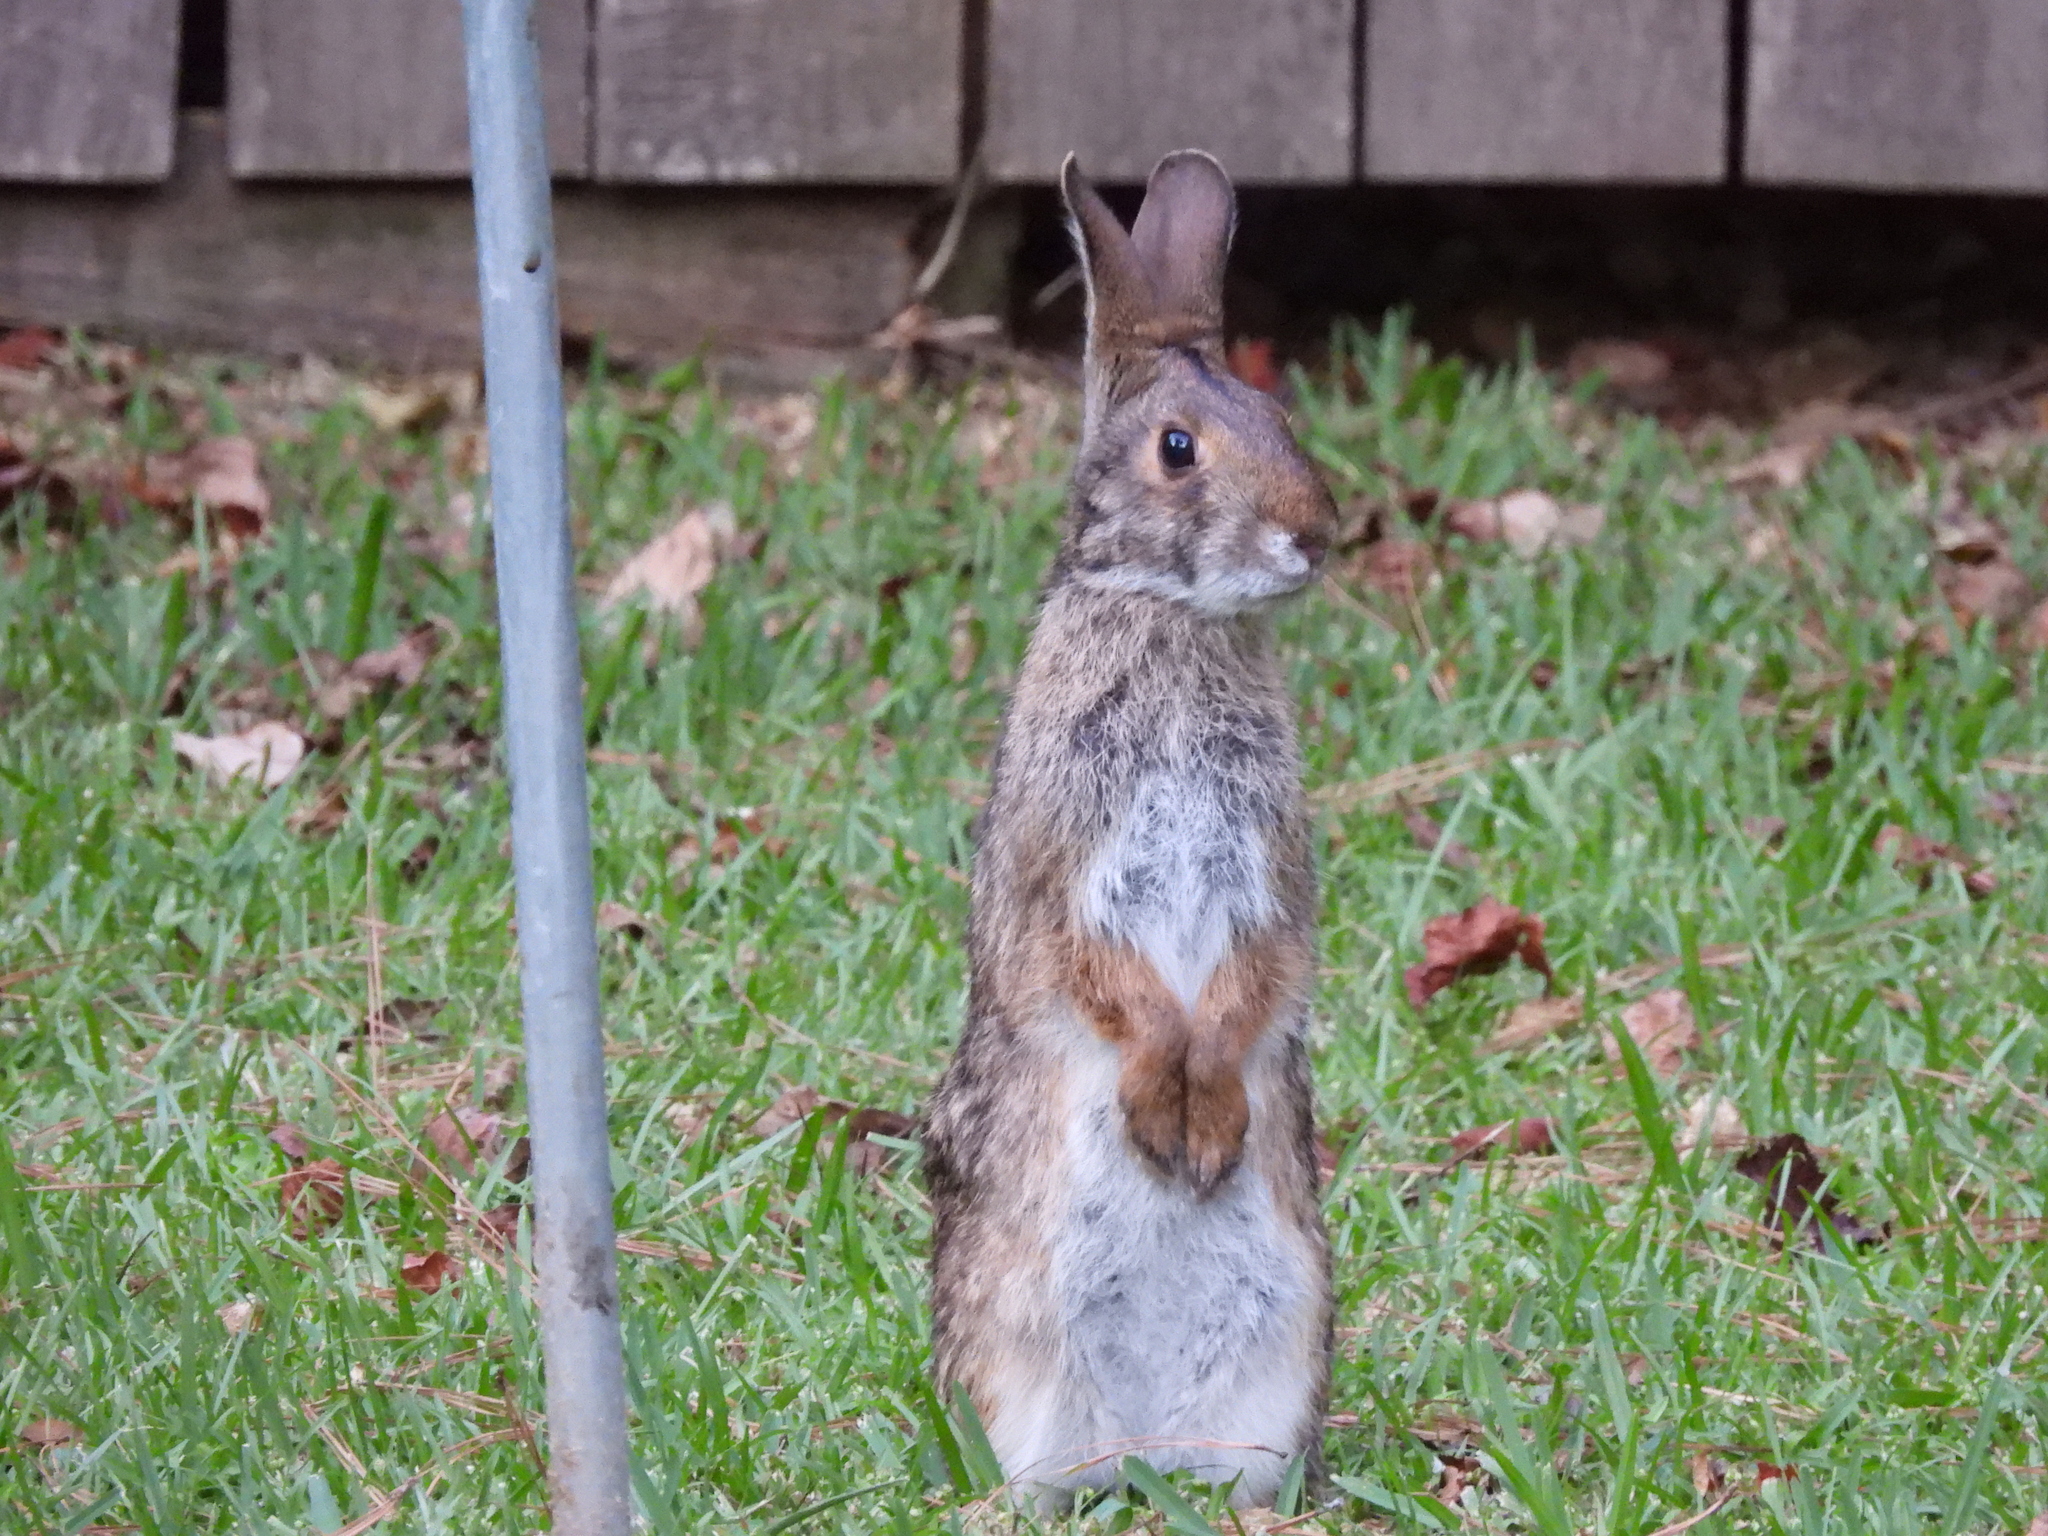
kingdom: Animalia
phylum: Chordata
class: Mammalia
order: Lagomorpha
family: Leporidae
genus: Sylvilagus
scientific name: Sylvilagus aquaticus
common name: Swamp rabbit
